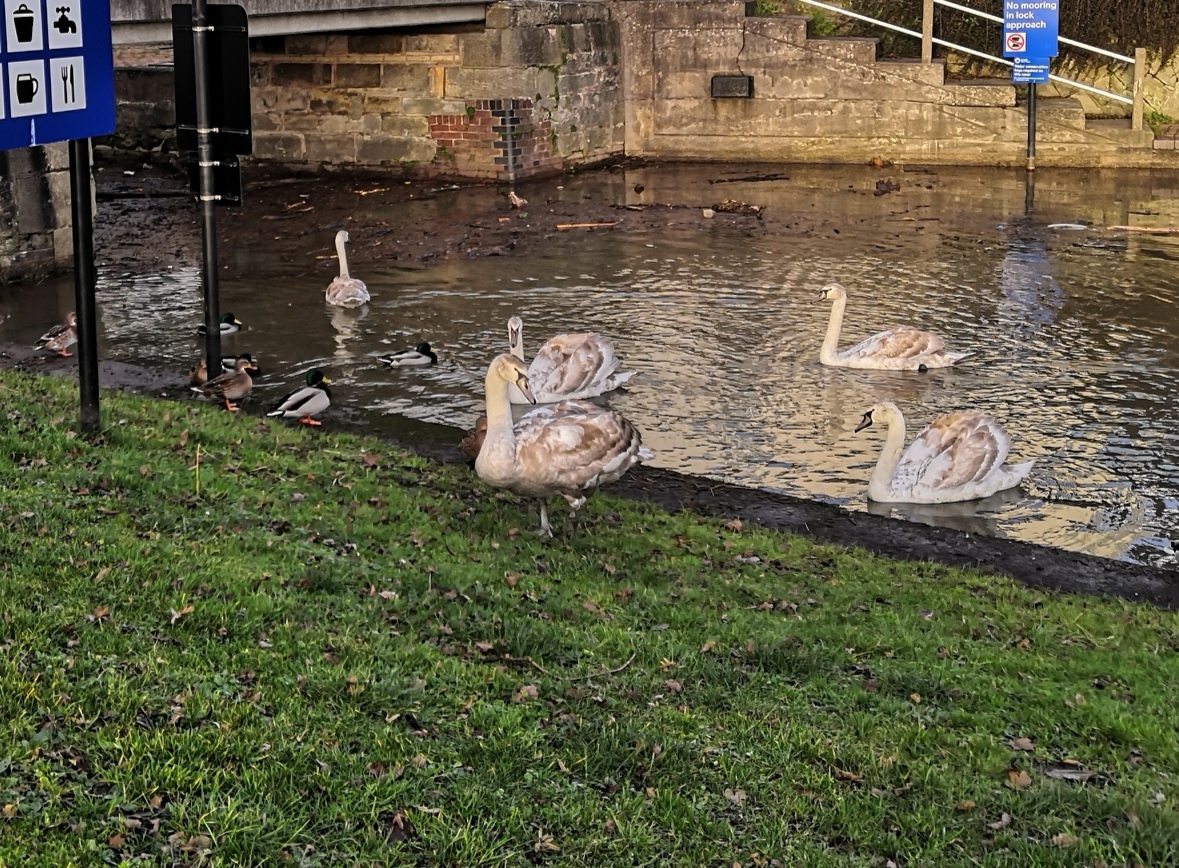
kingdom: Animalia
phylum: Chordata
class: Aves
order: Anseriformes
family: Anatidae
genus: Cygnus
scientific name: Cygnus olor
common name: Mute swan
